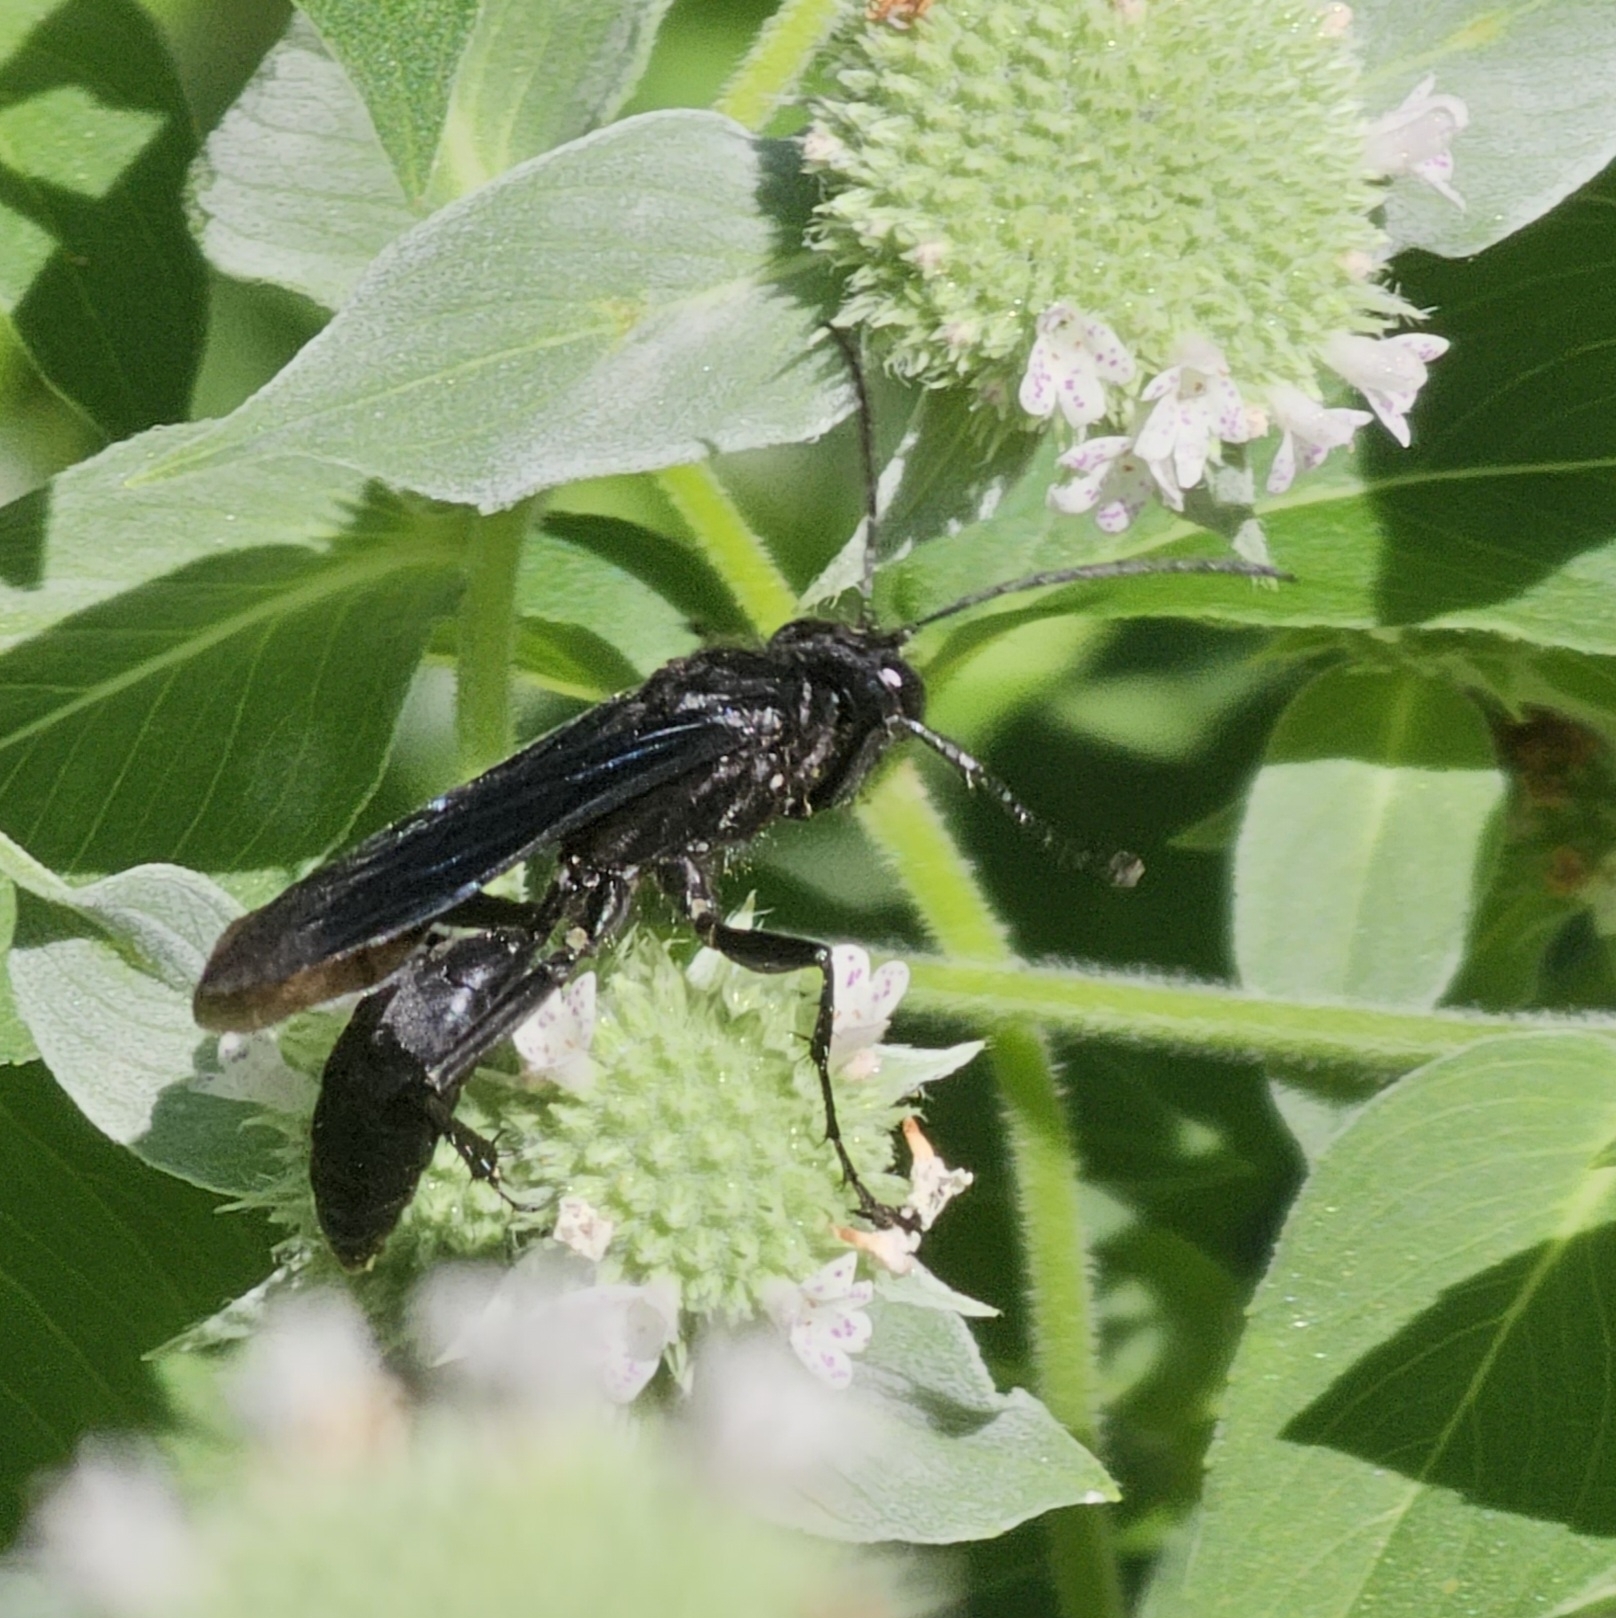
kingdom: Animalia
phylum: Arthropoda
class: Insecta
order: Hymenoptera
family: Sphecidae
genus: Sphex
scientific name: Sphex pensylvanicus
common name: Great black digger wasp
